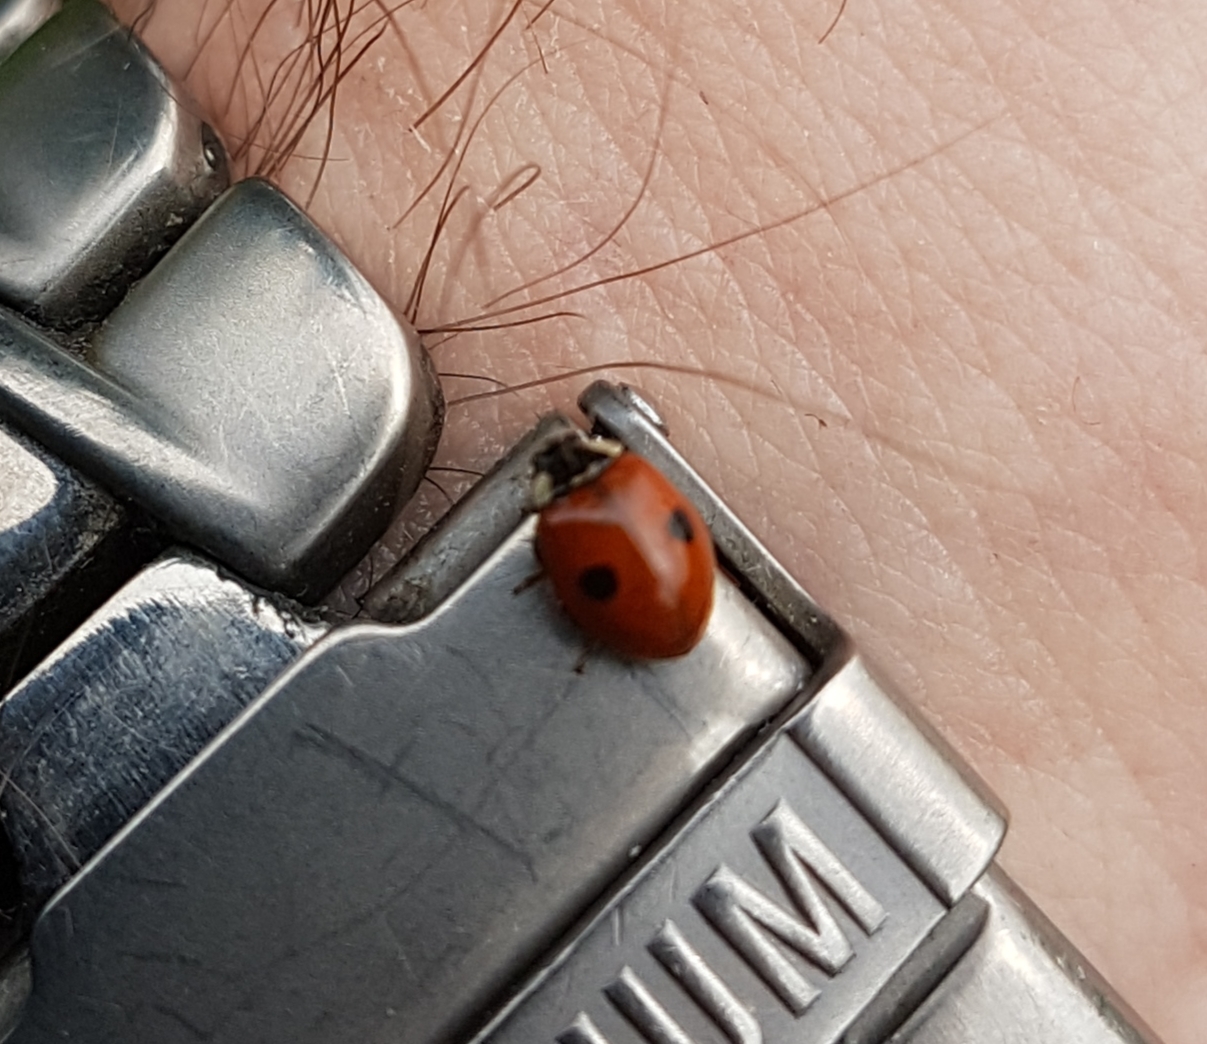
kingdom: Animalia
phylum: Arthropoda
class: Insecta
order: Coleoptera
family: Coccinellidae
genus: Adalia
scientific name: Adalia bipunctata
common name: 2-spot ladybird
